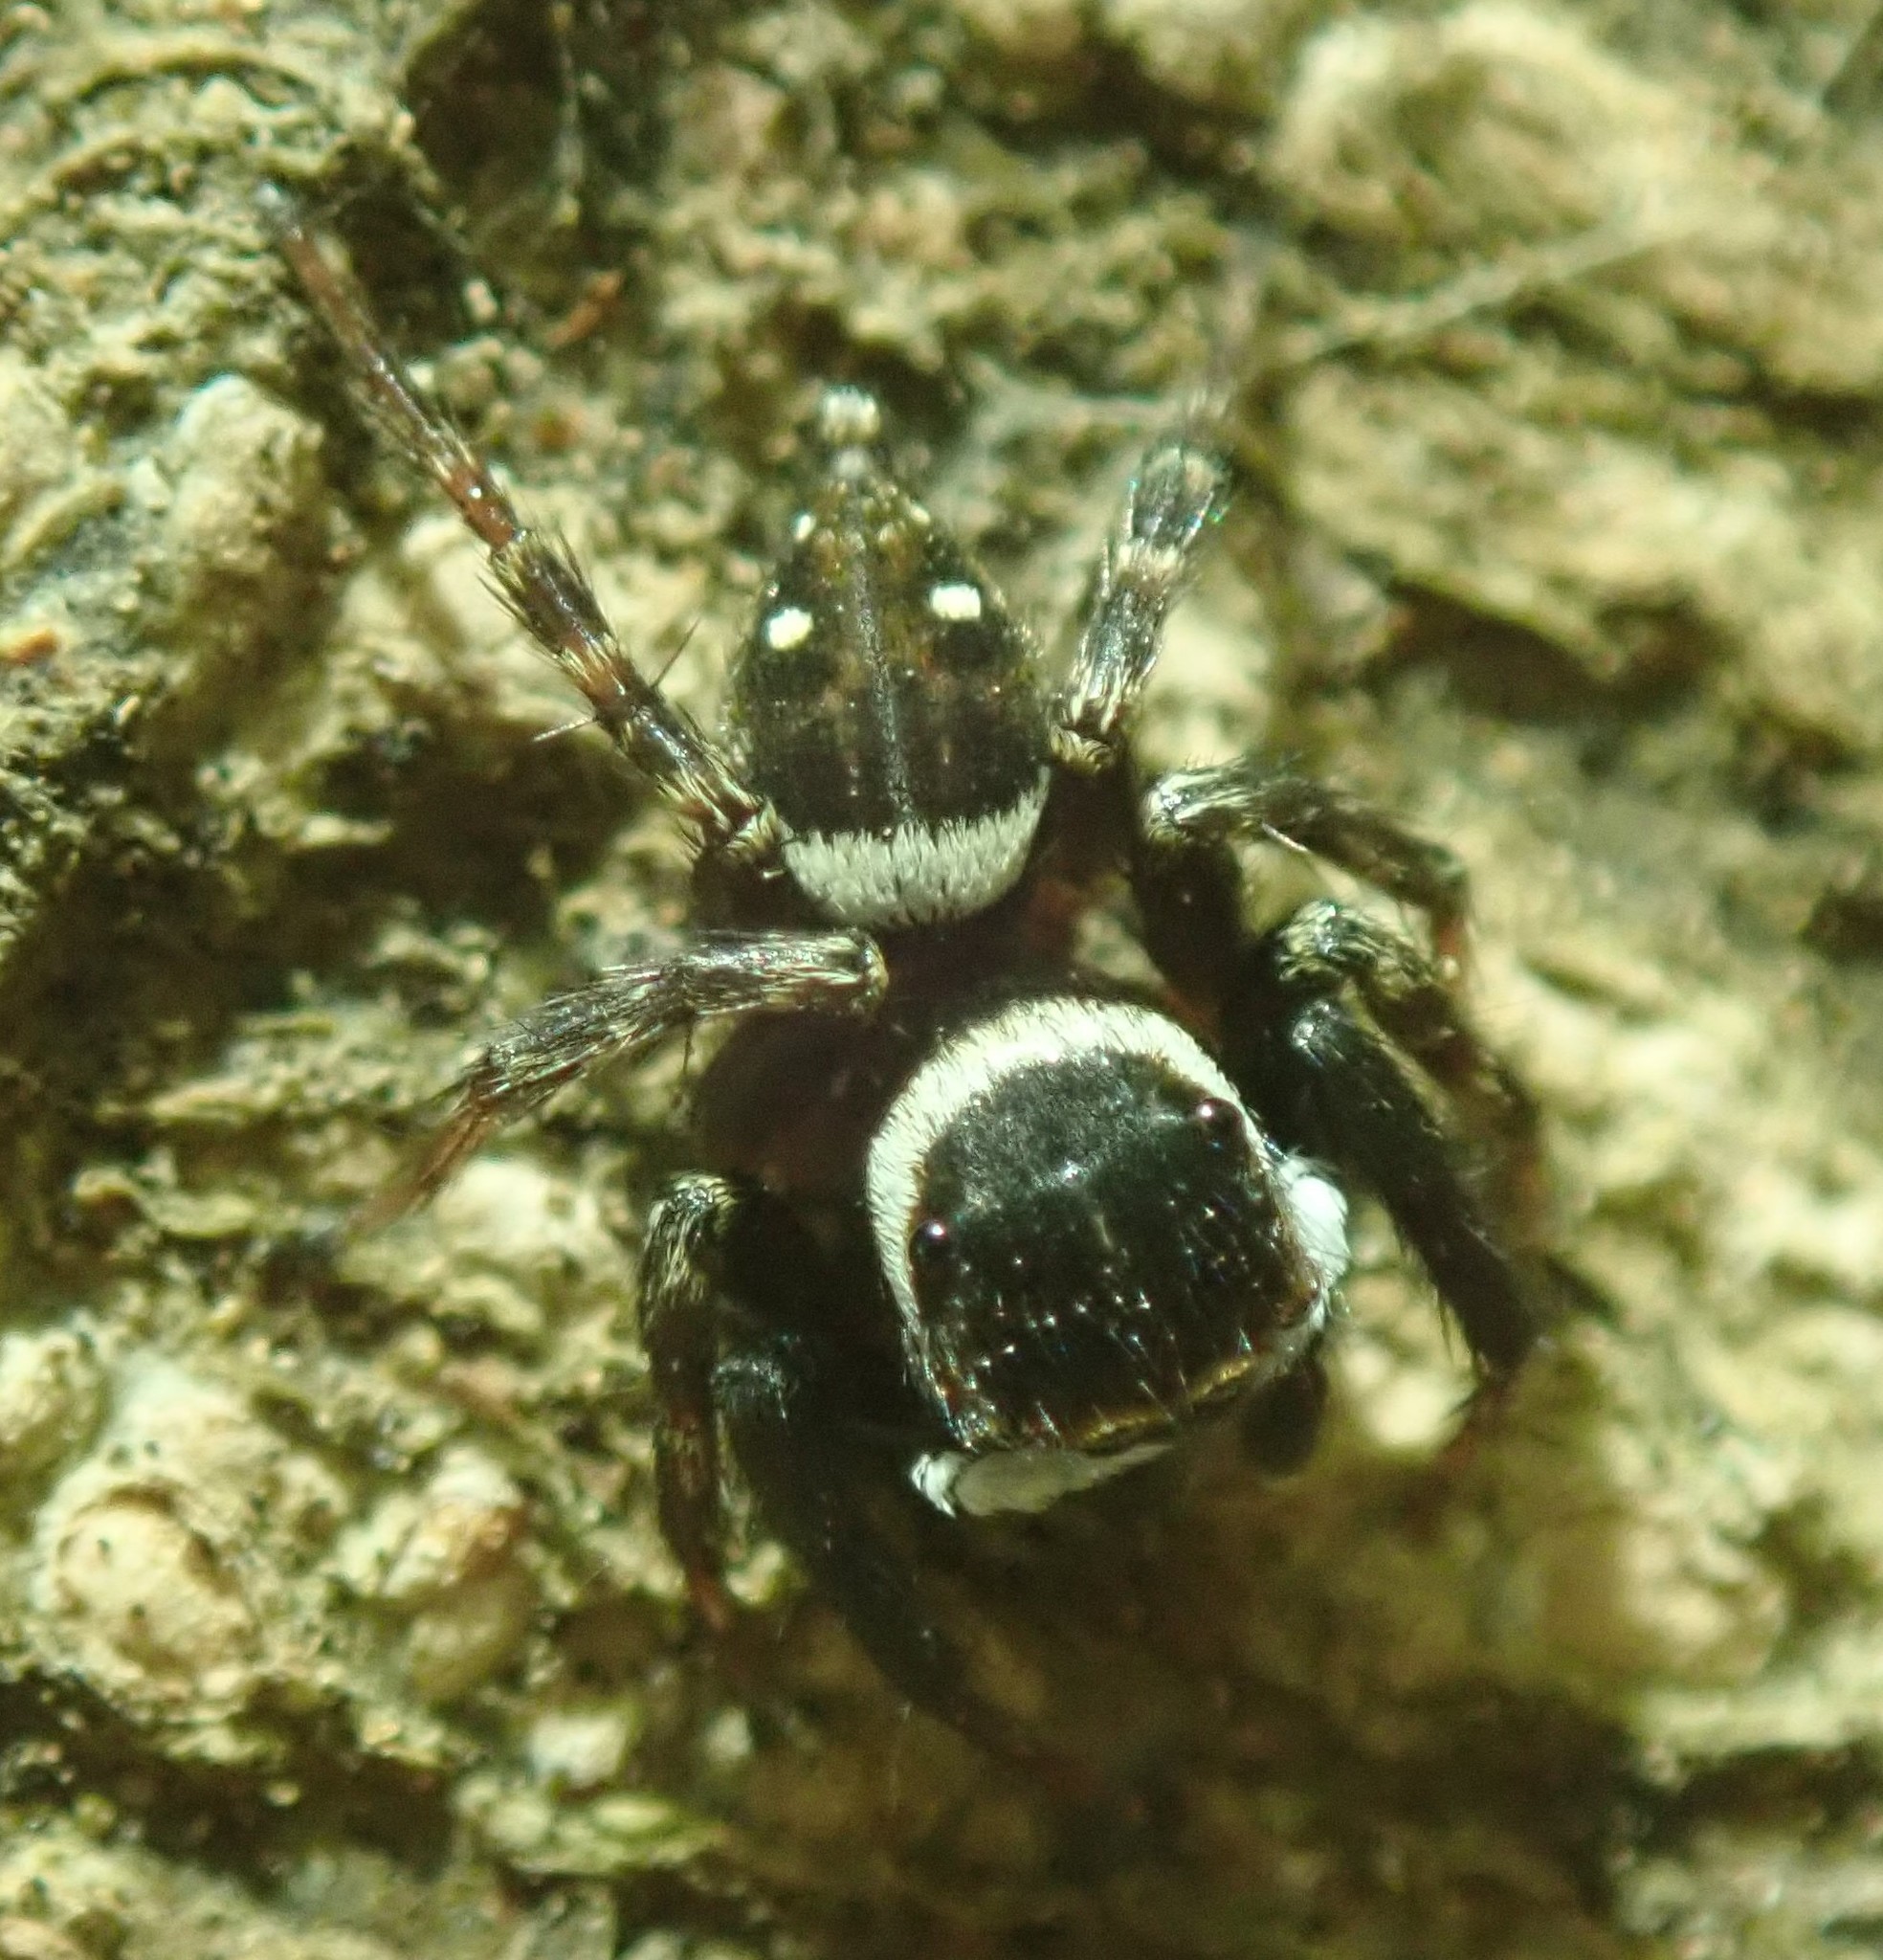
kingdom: Animalia
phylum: Arthropoda
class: Arachnida
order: Araneae
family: Salticidae
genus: Hasarius
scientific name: Hasarius adansoni
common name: Jumping spider
